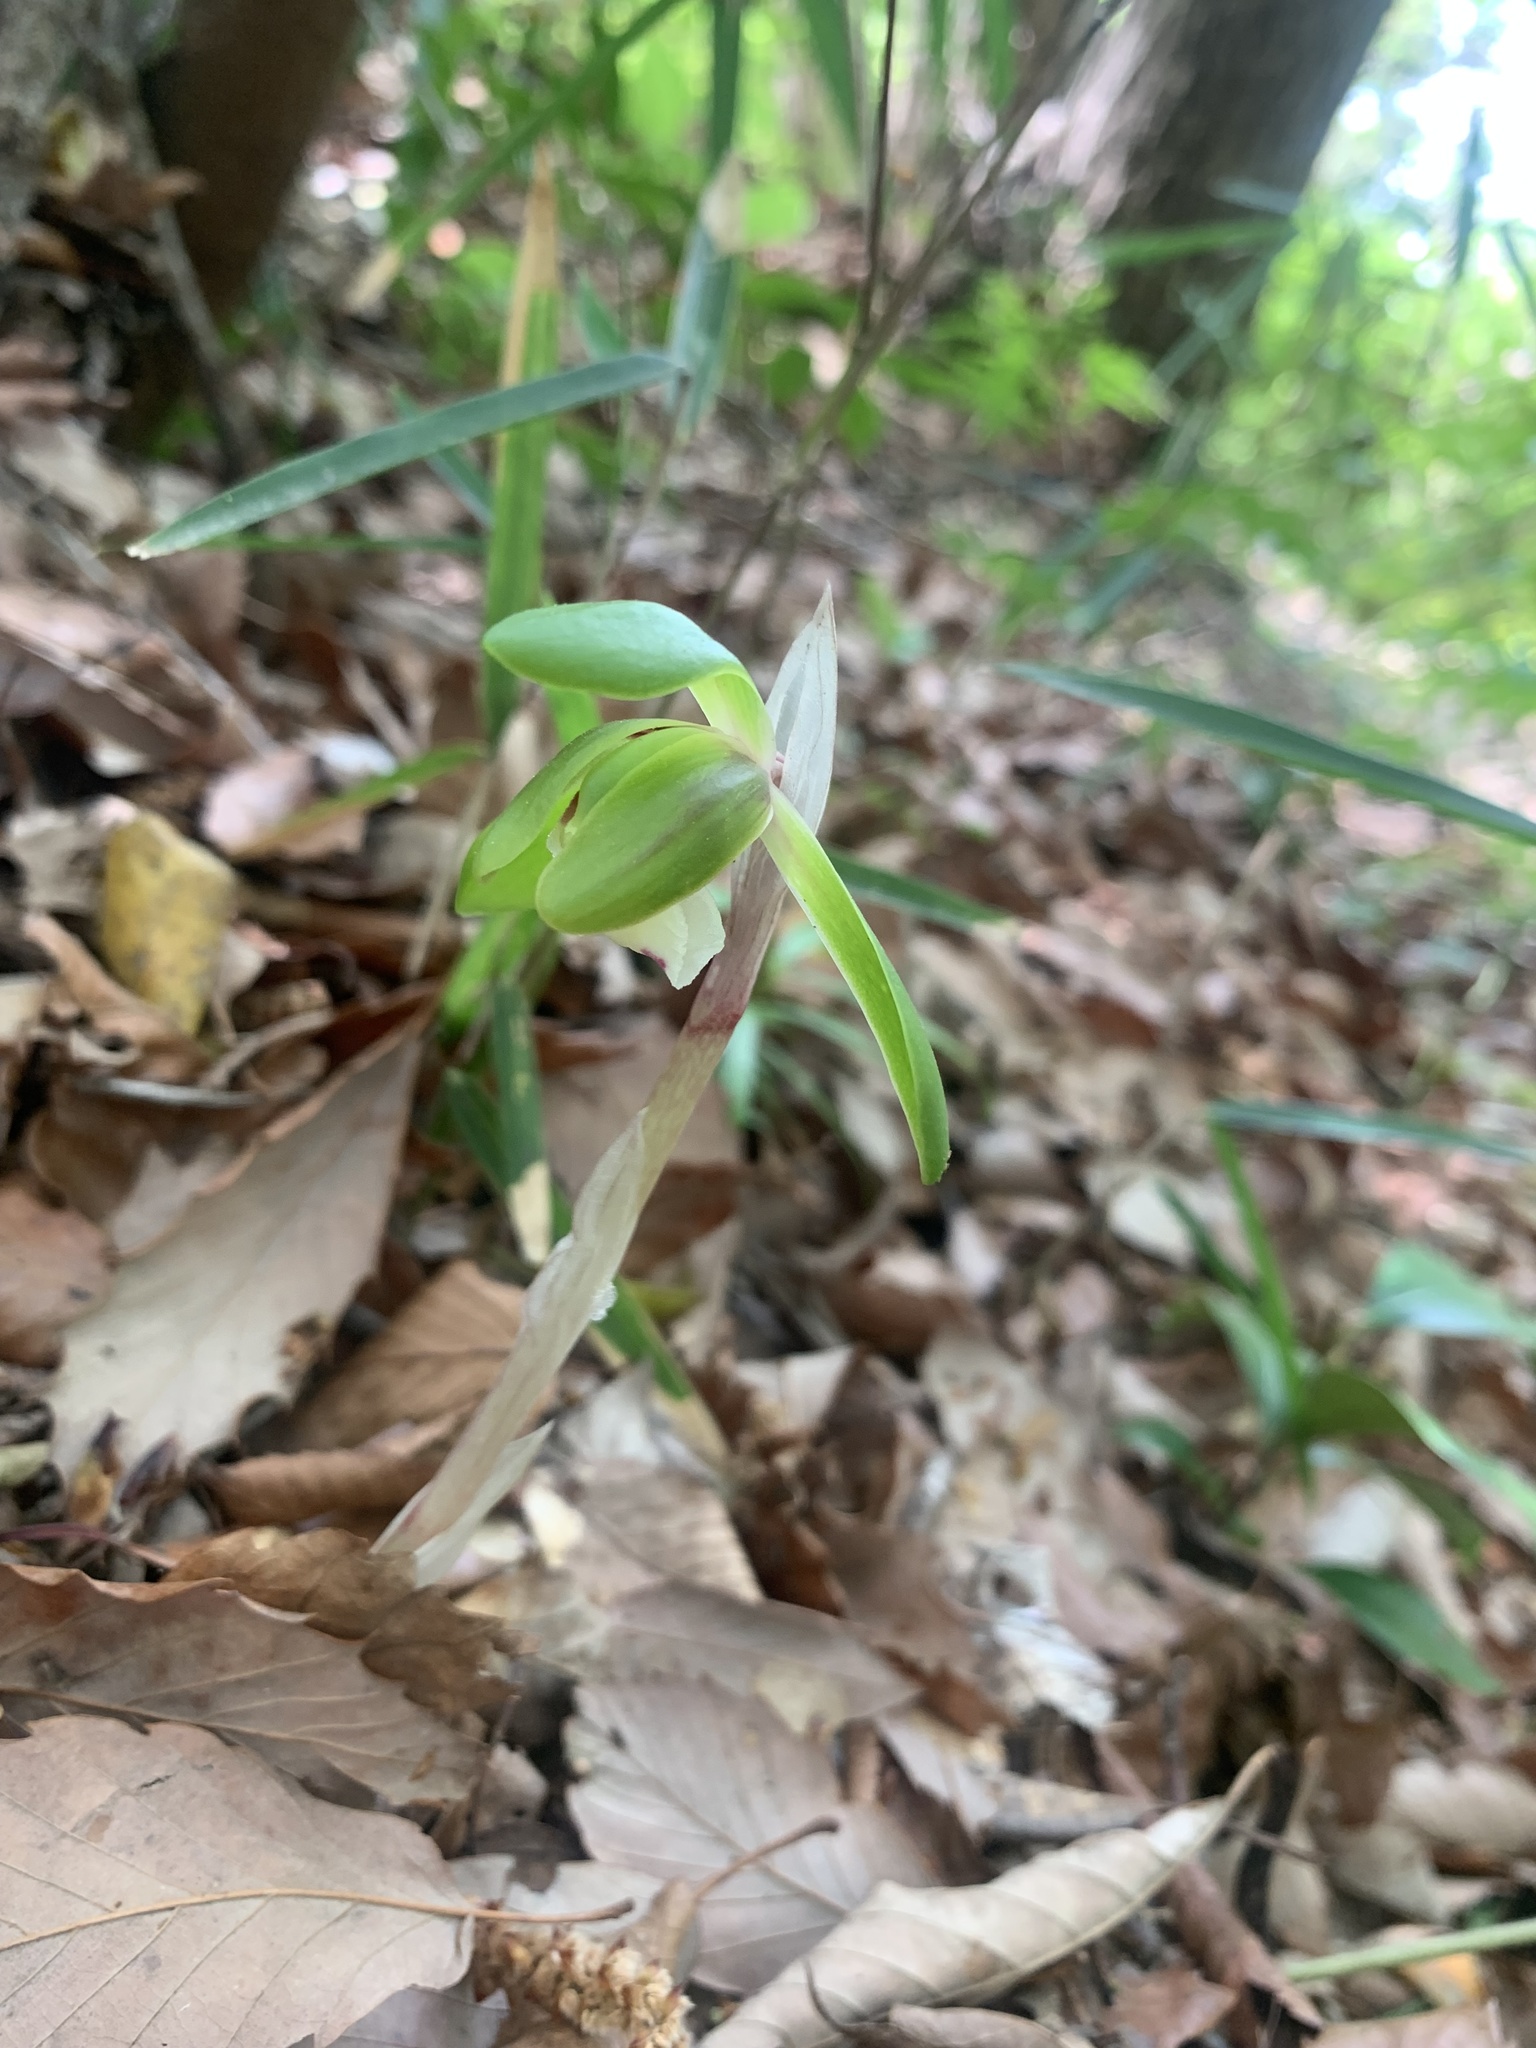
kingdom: Plantae
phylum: Tracheophyta
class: Liliopsida
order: Asparagales
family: Orchidaceae
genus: Cymbidium
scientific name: Cymbidium goeringii
